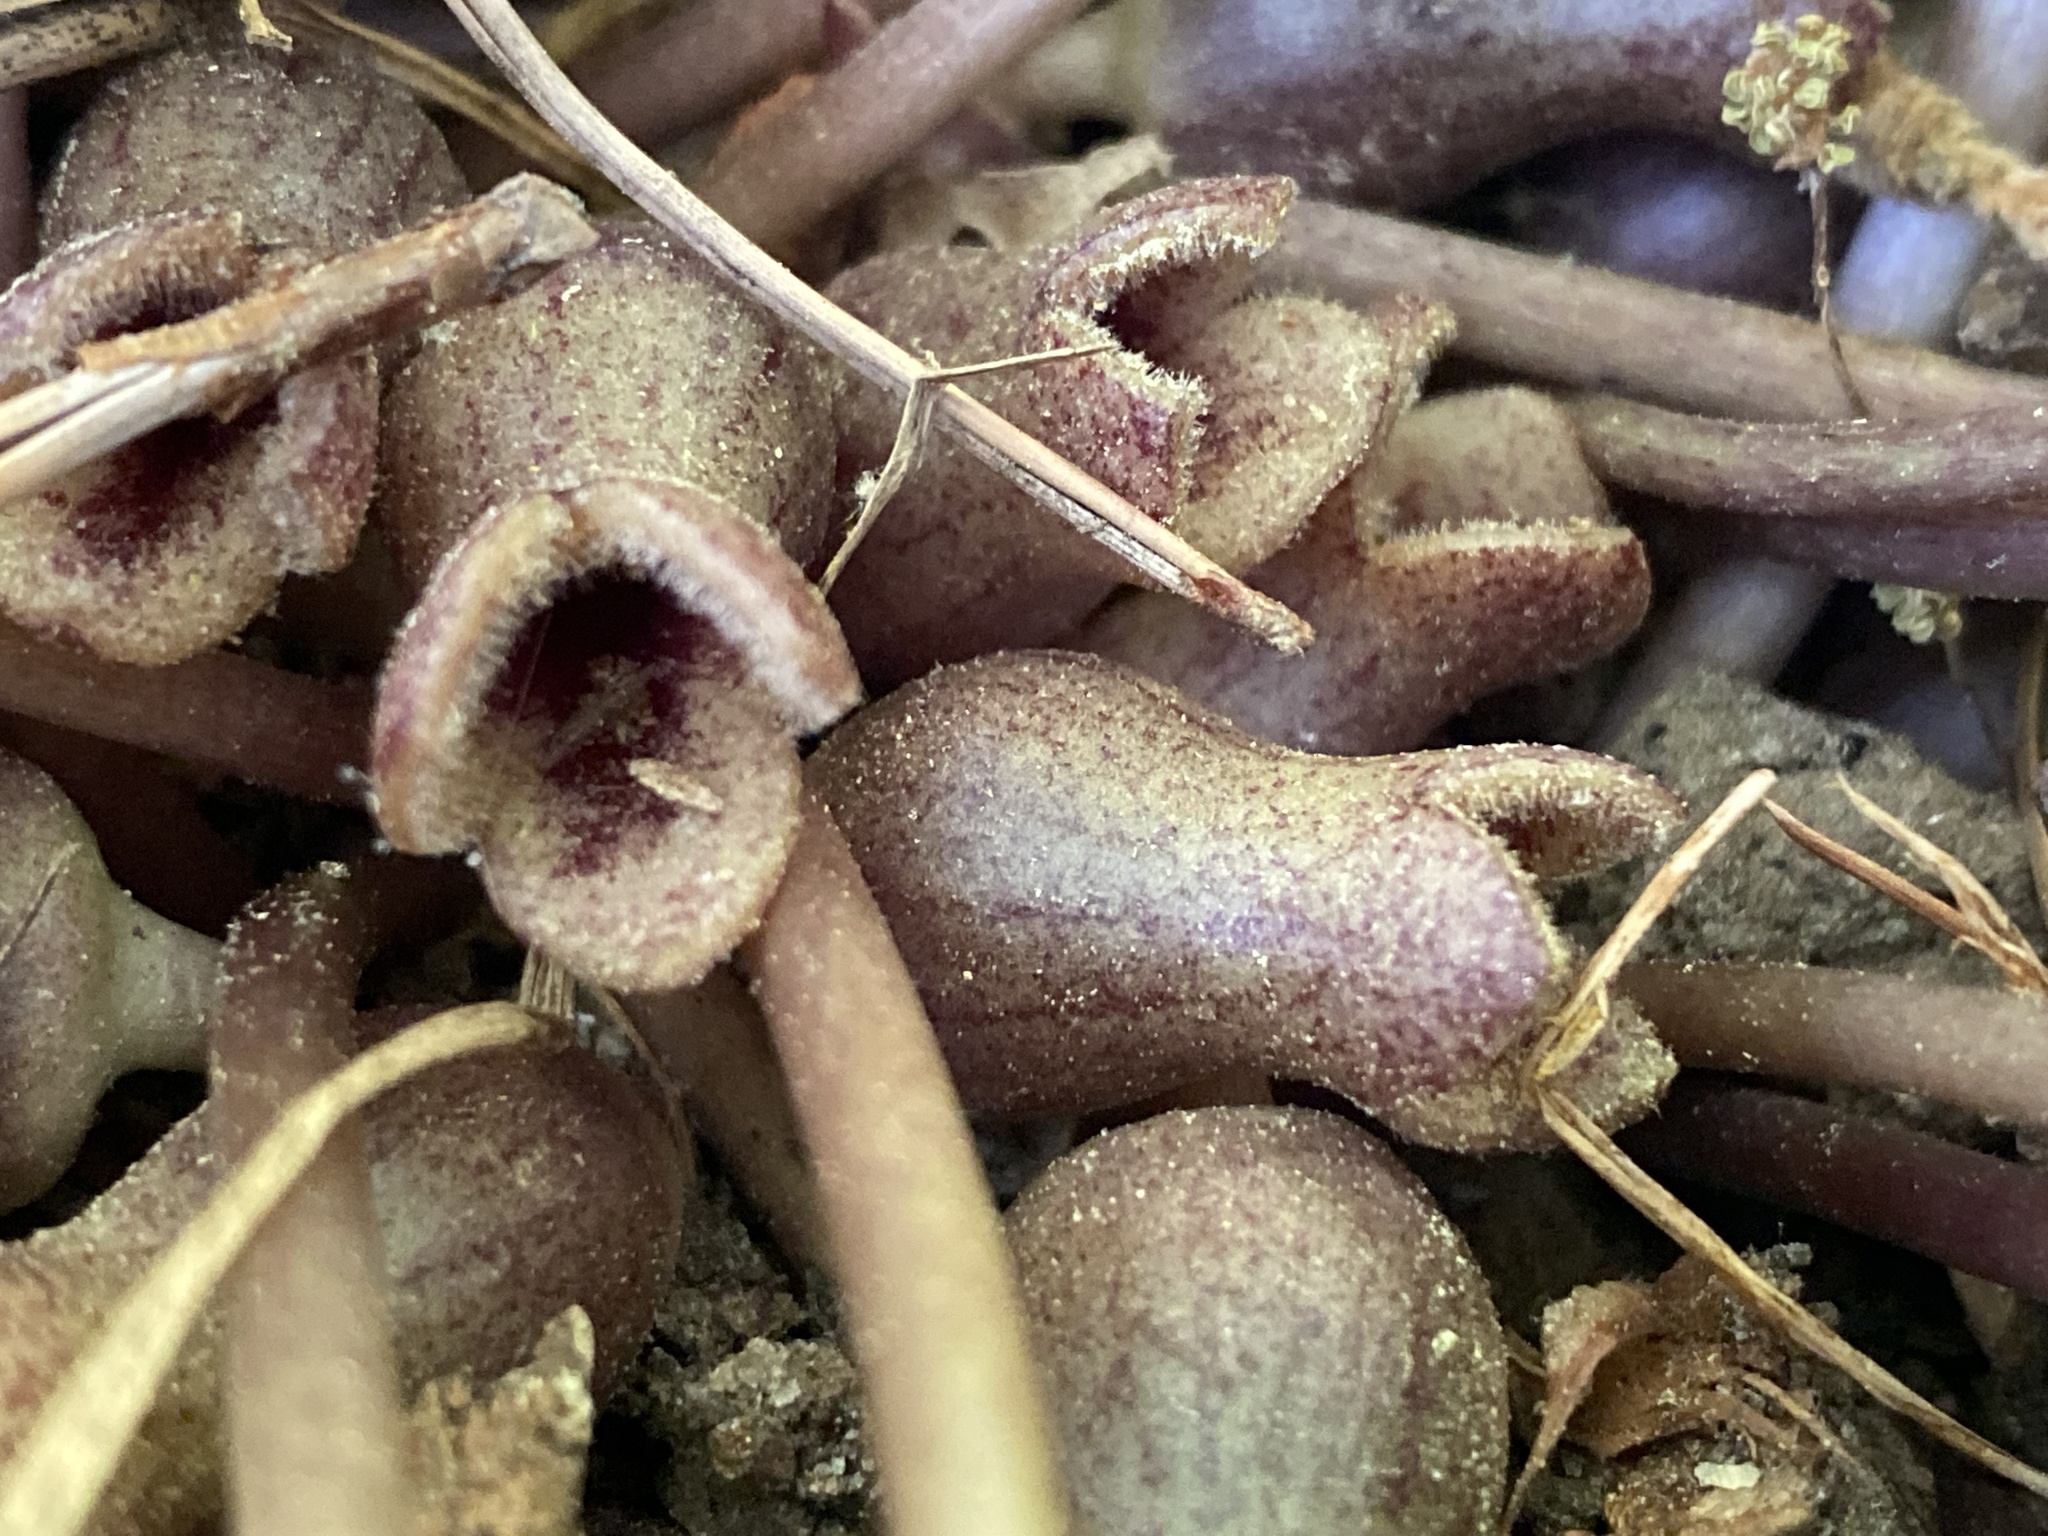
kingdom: Plantae
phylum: Tracheophyta
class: Magnoliopsida
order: Piperales
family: Aristolochiaceae
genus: Hexastylis
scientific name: Hexastylis arifolia
